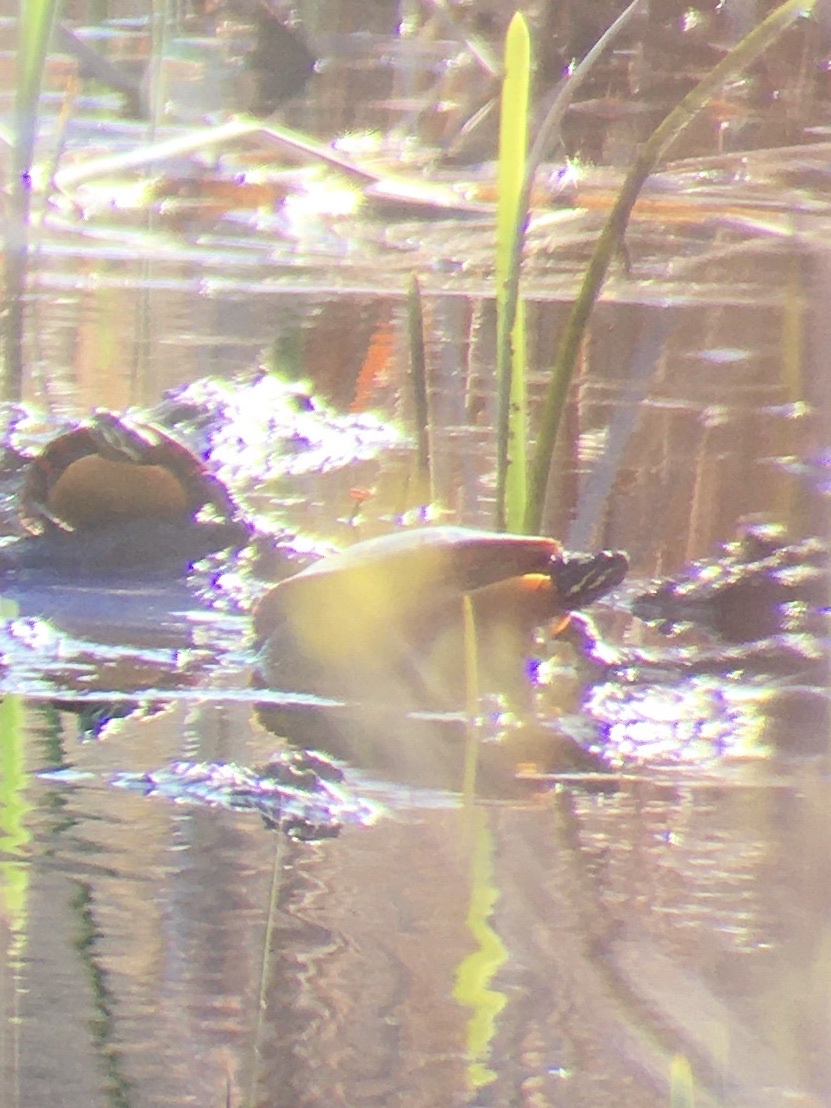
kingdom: Animalia
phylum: Chordata
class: Testudines
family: Emydidae
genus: Chrysemys
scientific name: Chrysemys picta
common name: Painted turtle
